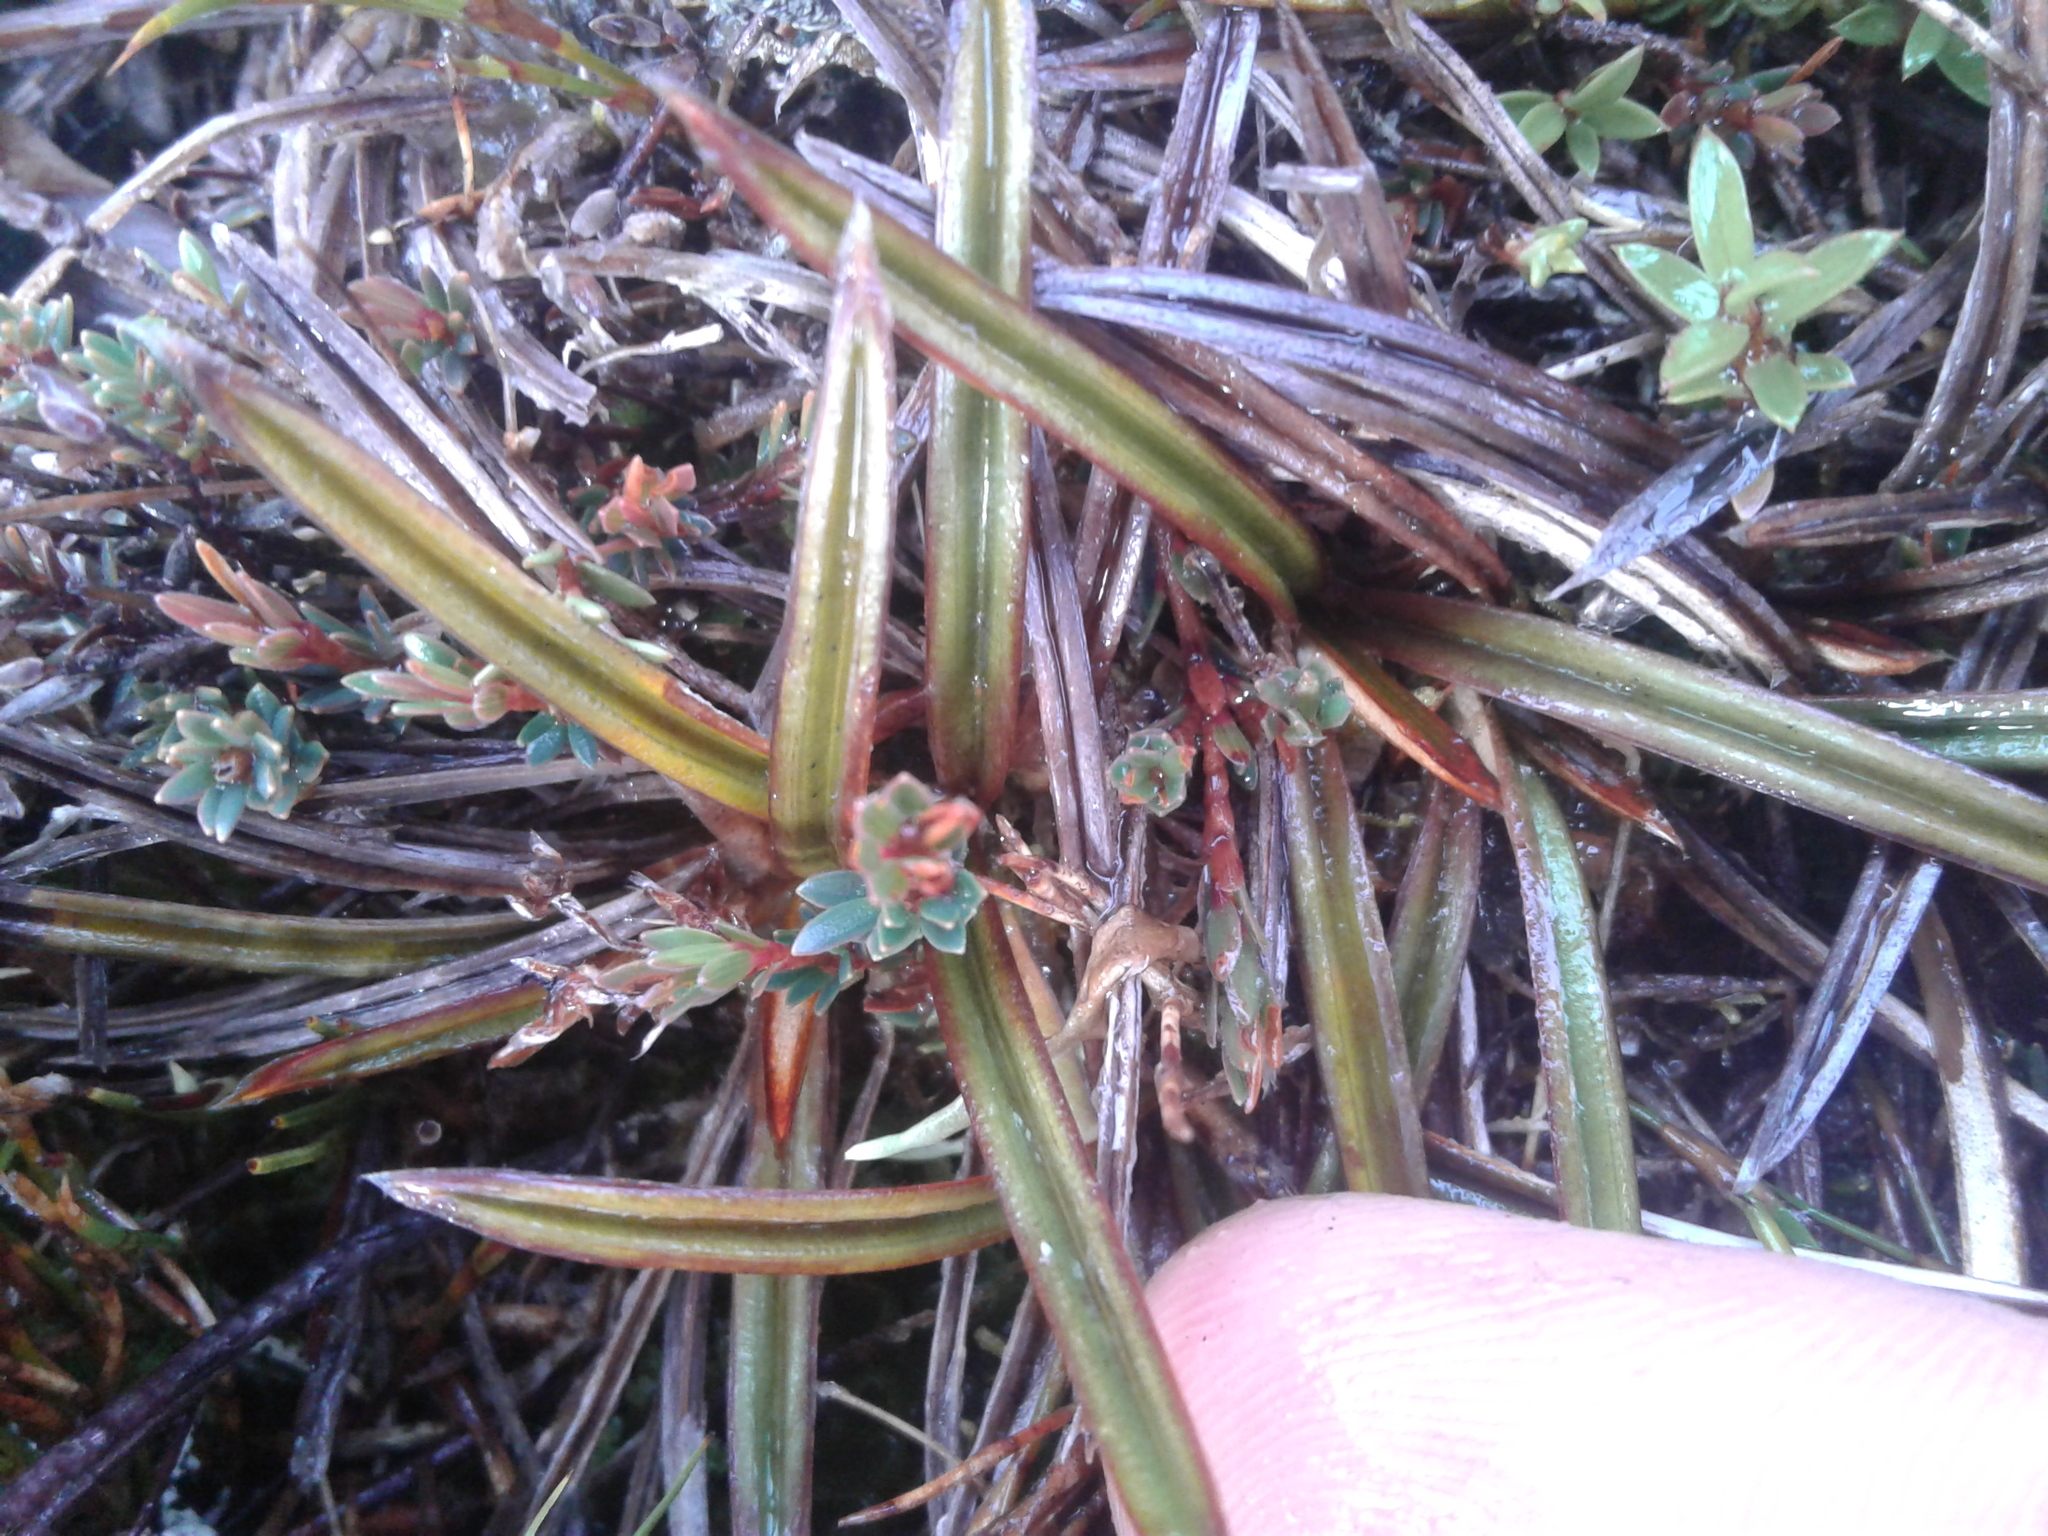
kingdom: Plantae
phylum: Tracheophyta
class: Liliopsida
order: Asparagales
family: Asteliaceae
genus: Astelia
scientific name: Astelia linearis
